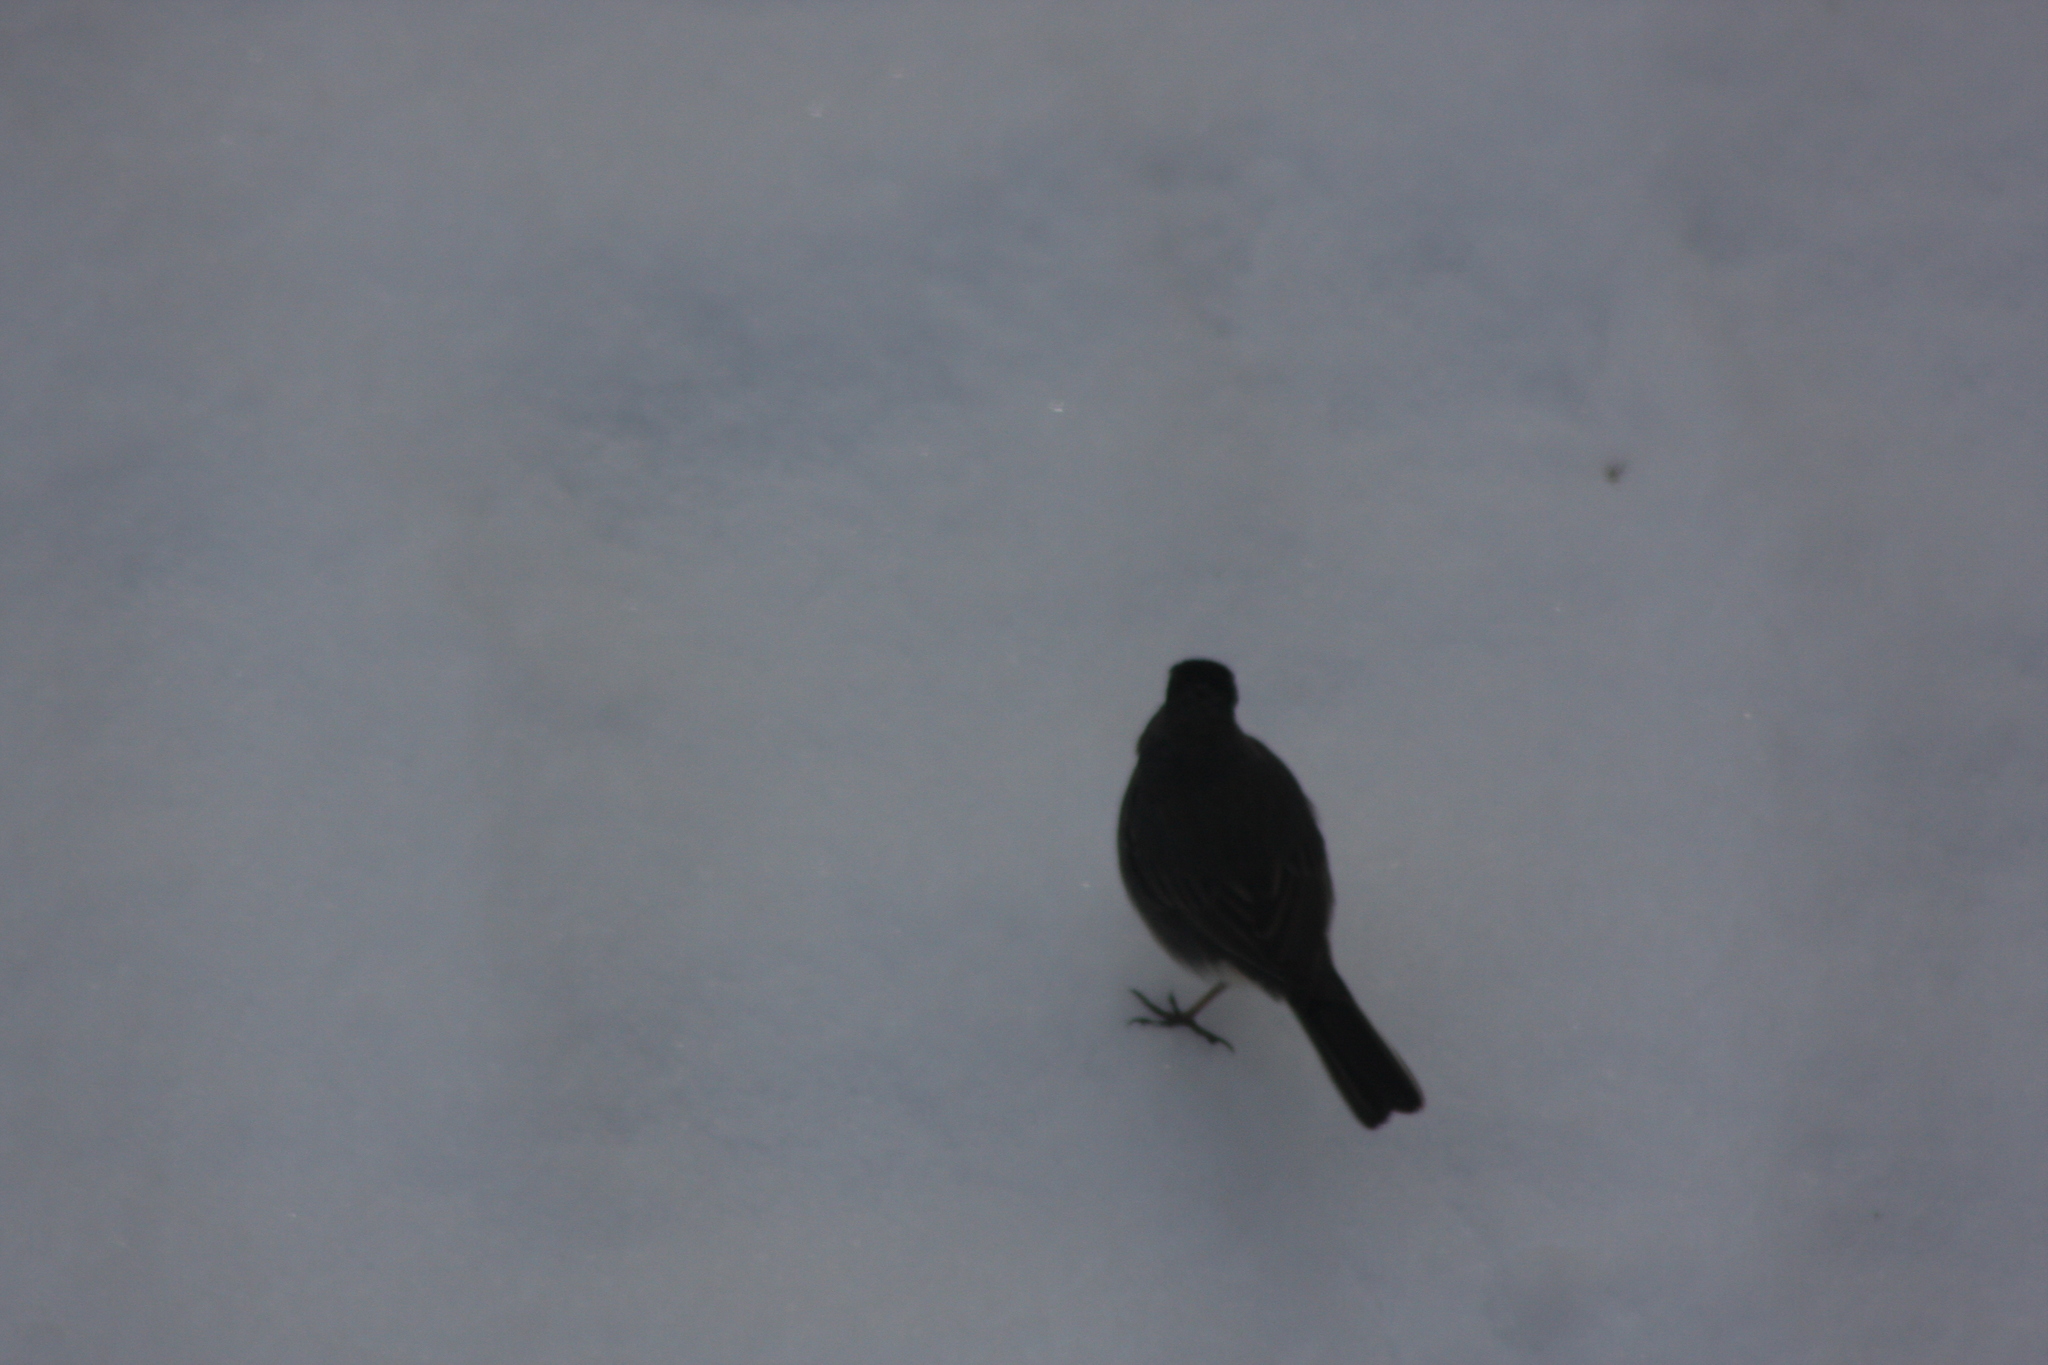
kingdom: Animalia
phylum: Chordata
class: Aves
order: Passeriformes
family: Passerellidae
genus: Junco
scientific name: Junco hyemalis
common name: Dark-eyed junco
